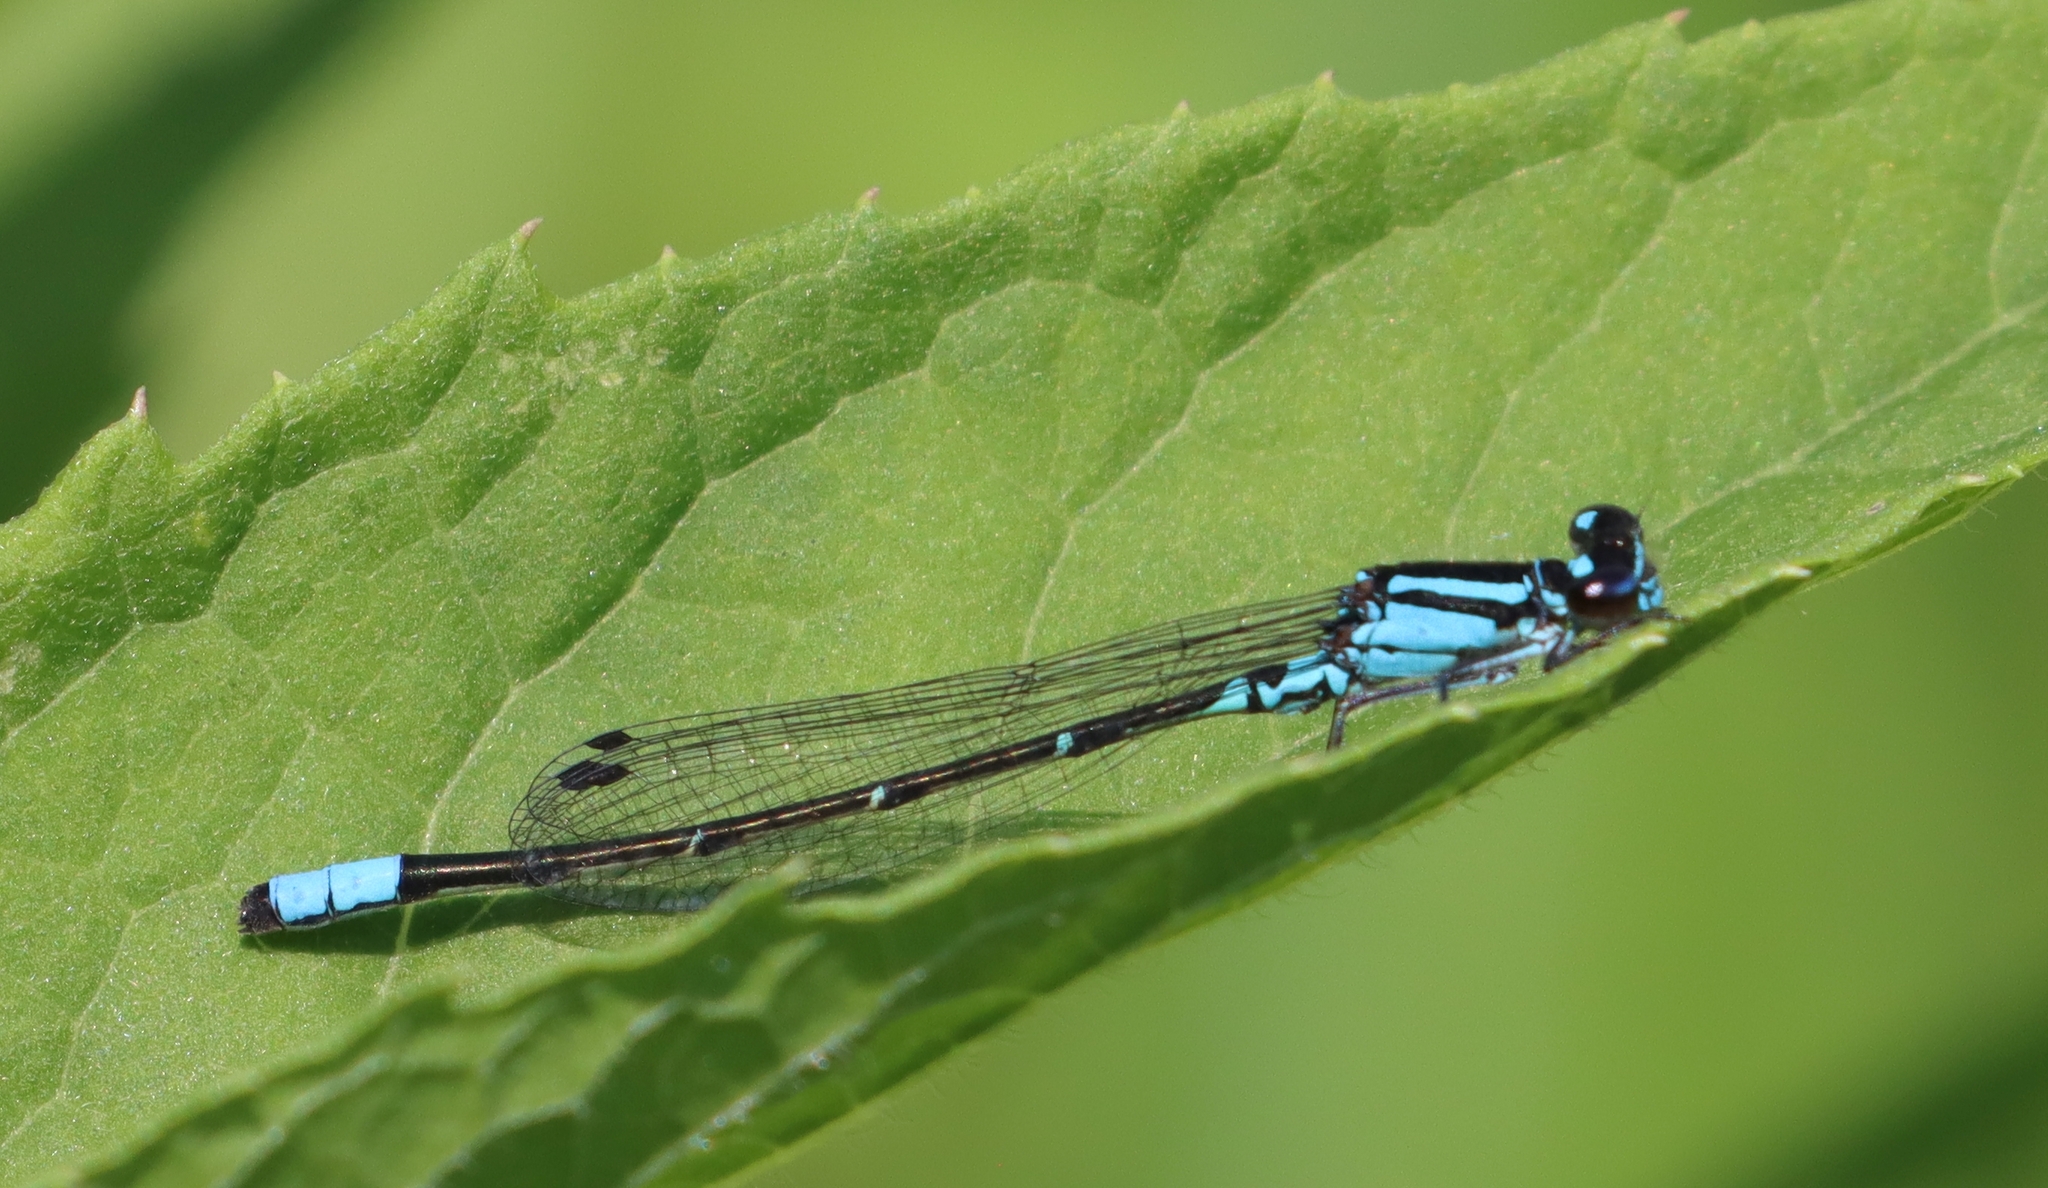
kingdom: Animalia
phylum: Arthropoda
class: Insecta
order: Odonata
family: Coenagrionidae
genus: Enallagma
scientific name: Enallagma geminatum
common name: Skimming bluet
